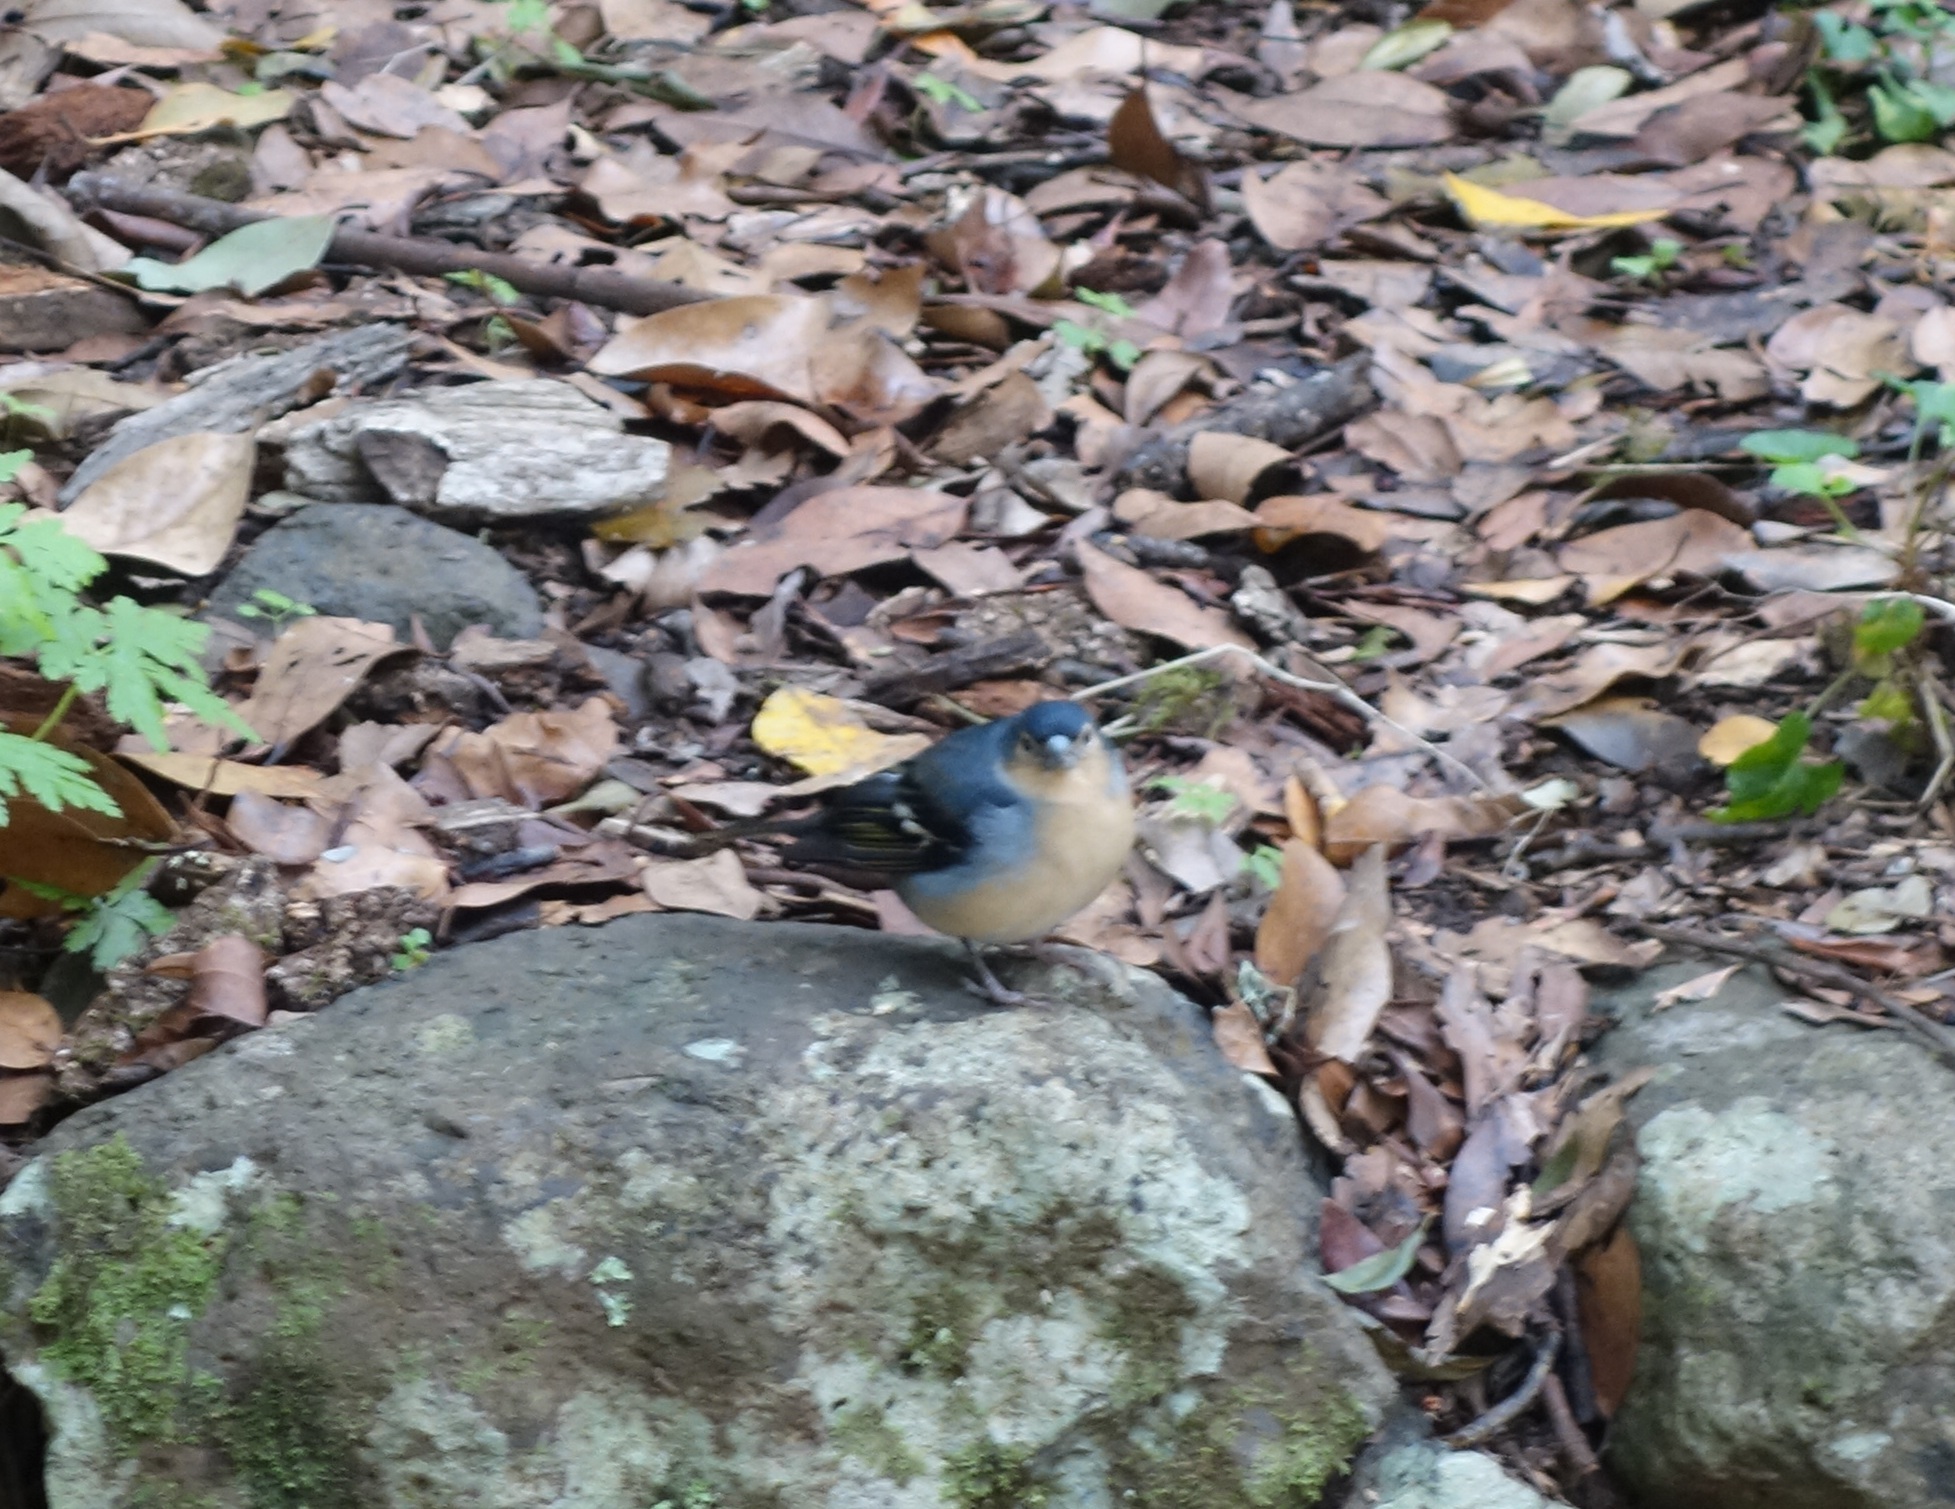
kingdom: Animalia
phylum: Chordata
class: Aves
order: Passeriformes
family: Fringillidae
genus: Fringilla
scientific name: Fringilla canariensis
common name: Canary islands chaffinch
